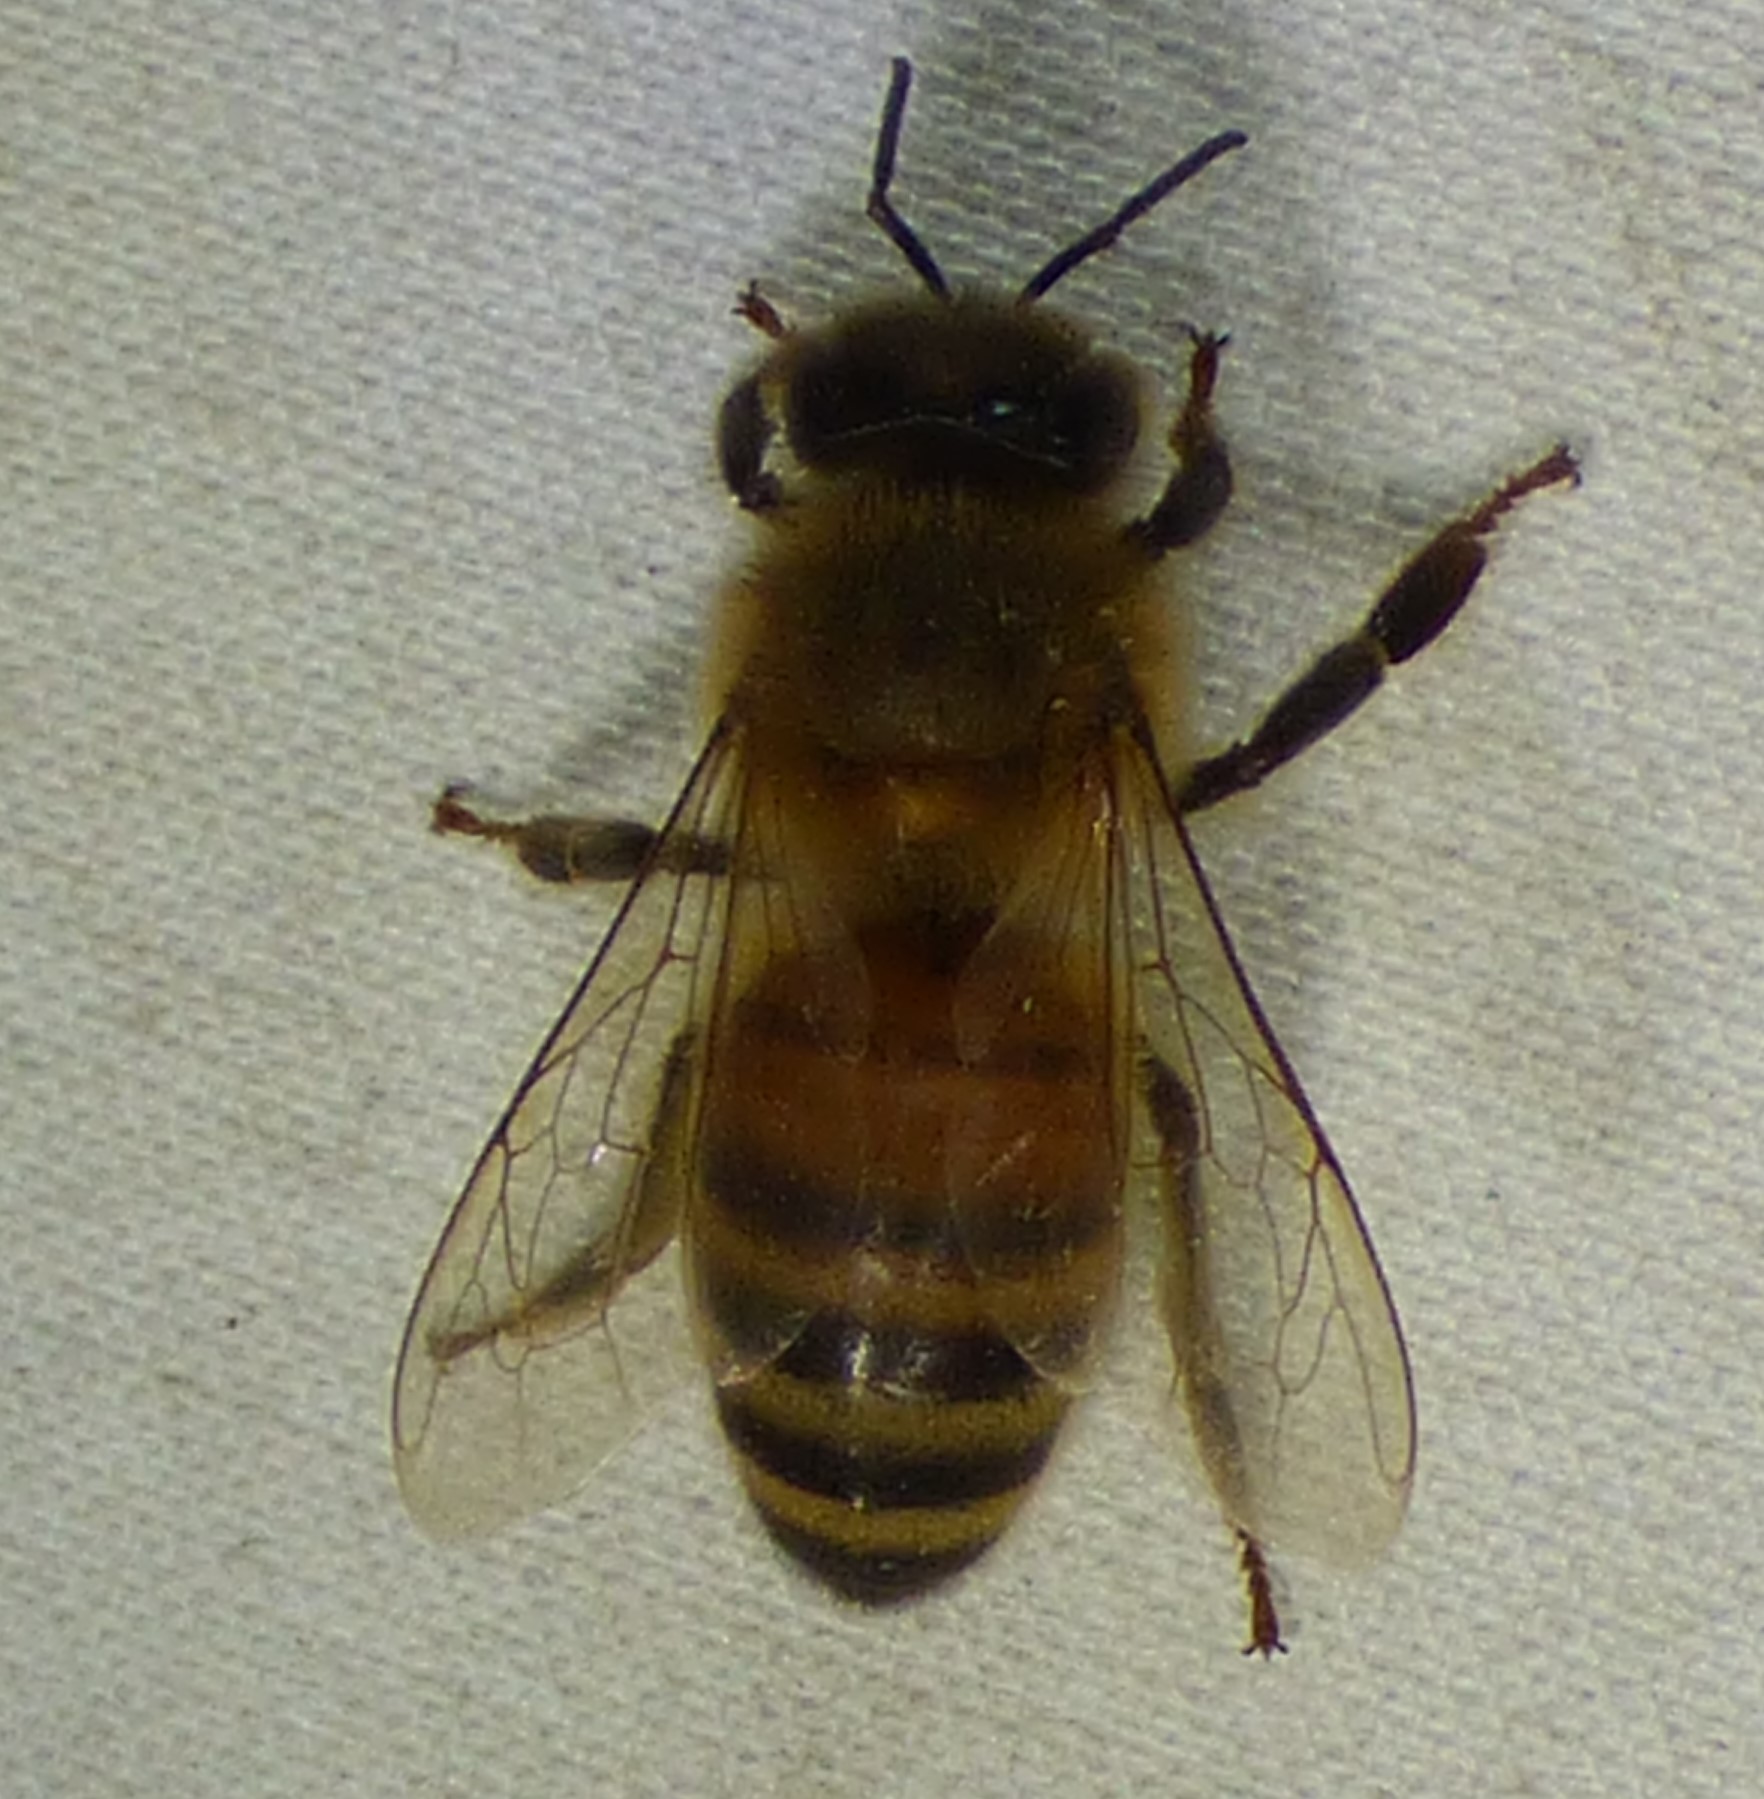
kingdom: Animalia
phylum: Arthropoda
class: Insecta
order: Hymenoptera
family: Apidae
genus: Apis
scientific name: Apis mellifera
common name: Honey bee
